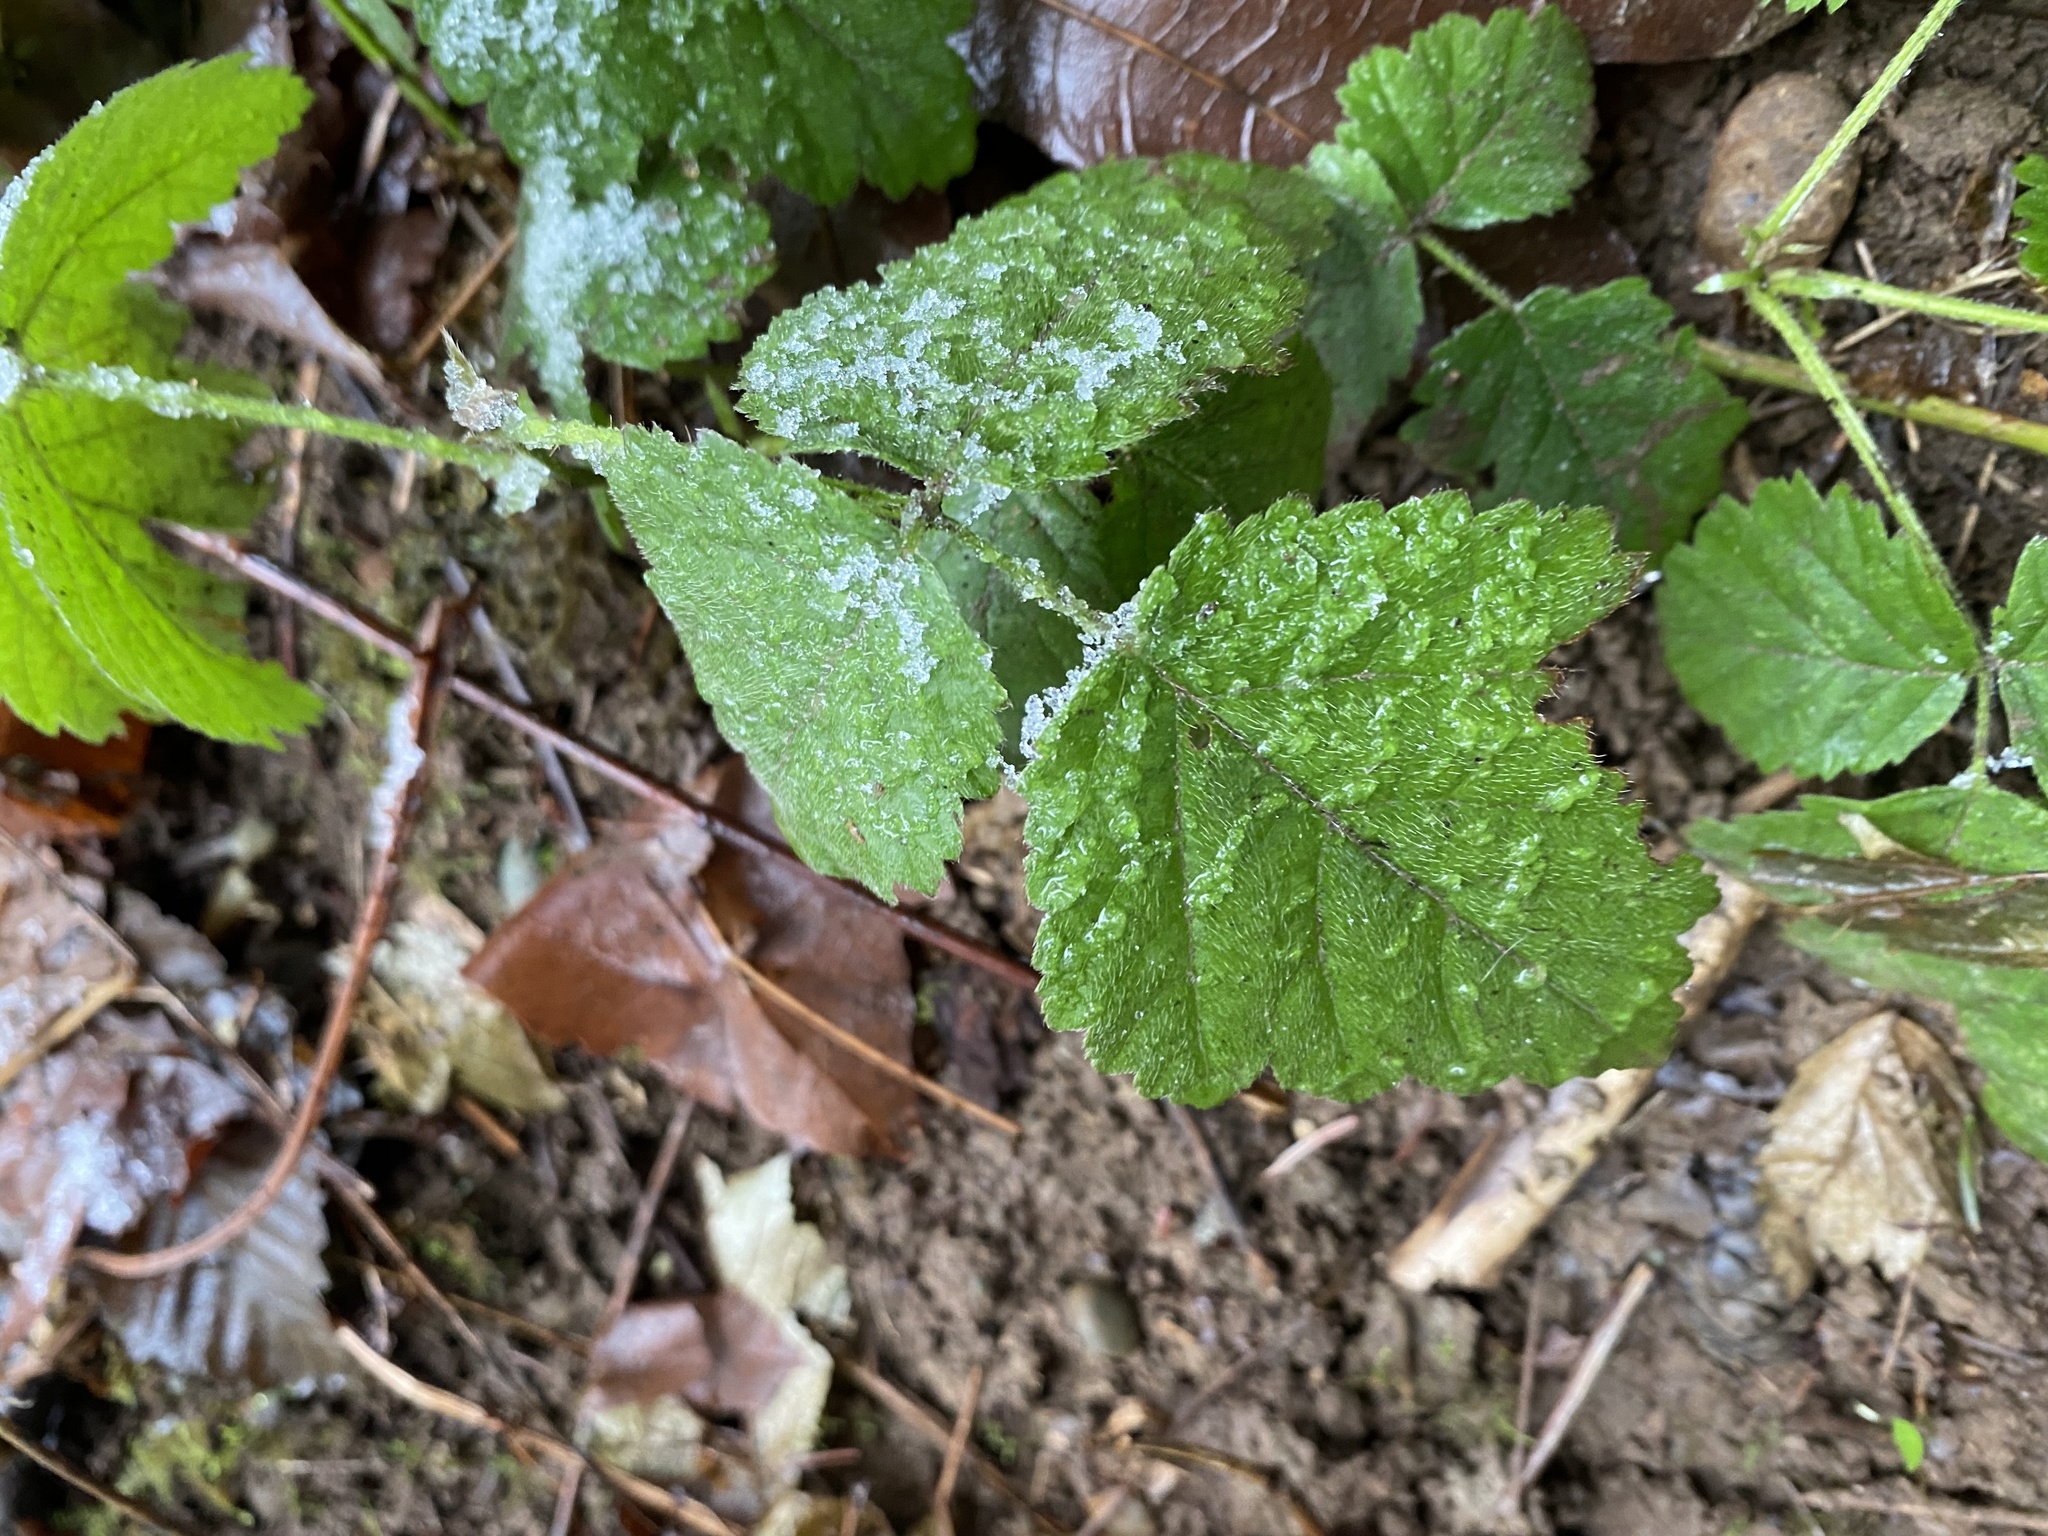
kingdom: Plantae
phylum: Tracheophyta
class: Magnoliopsida
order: Rosales
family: Rosaceae
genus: Rubus
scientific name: Rubus ursinus
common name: Pacific blackberry
